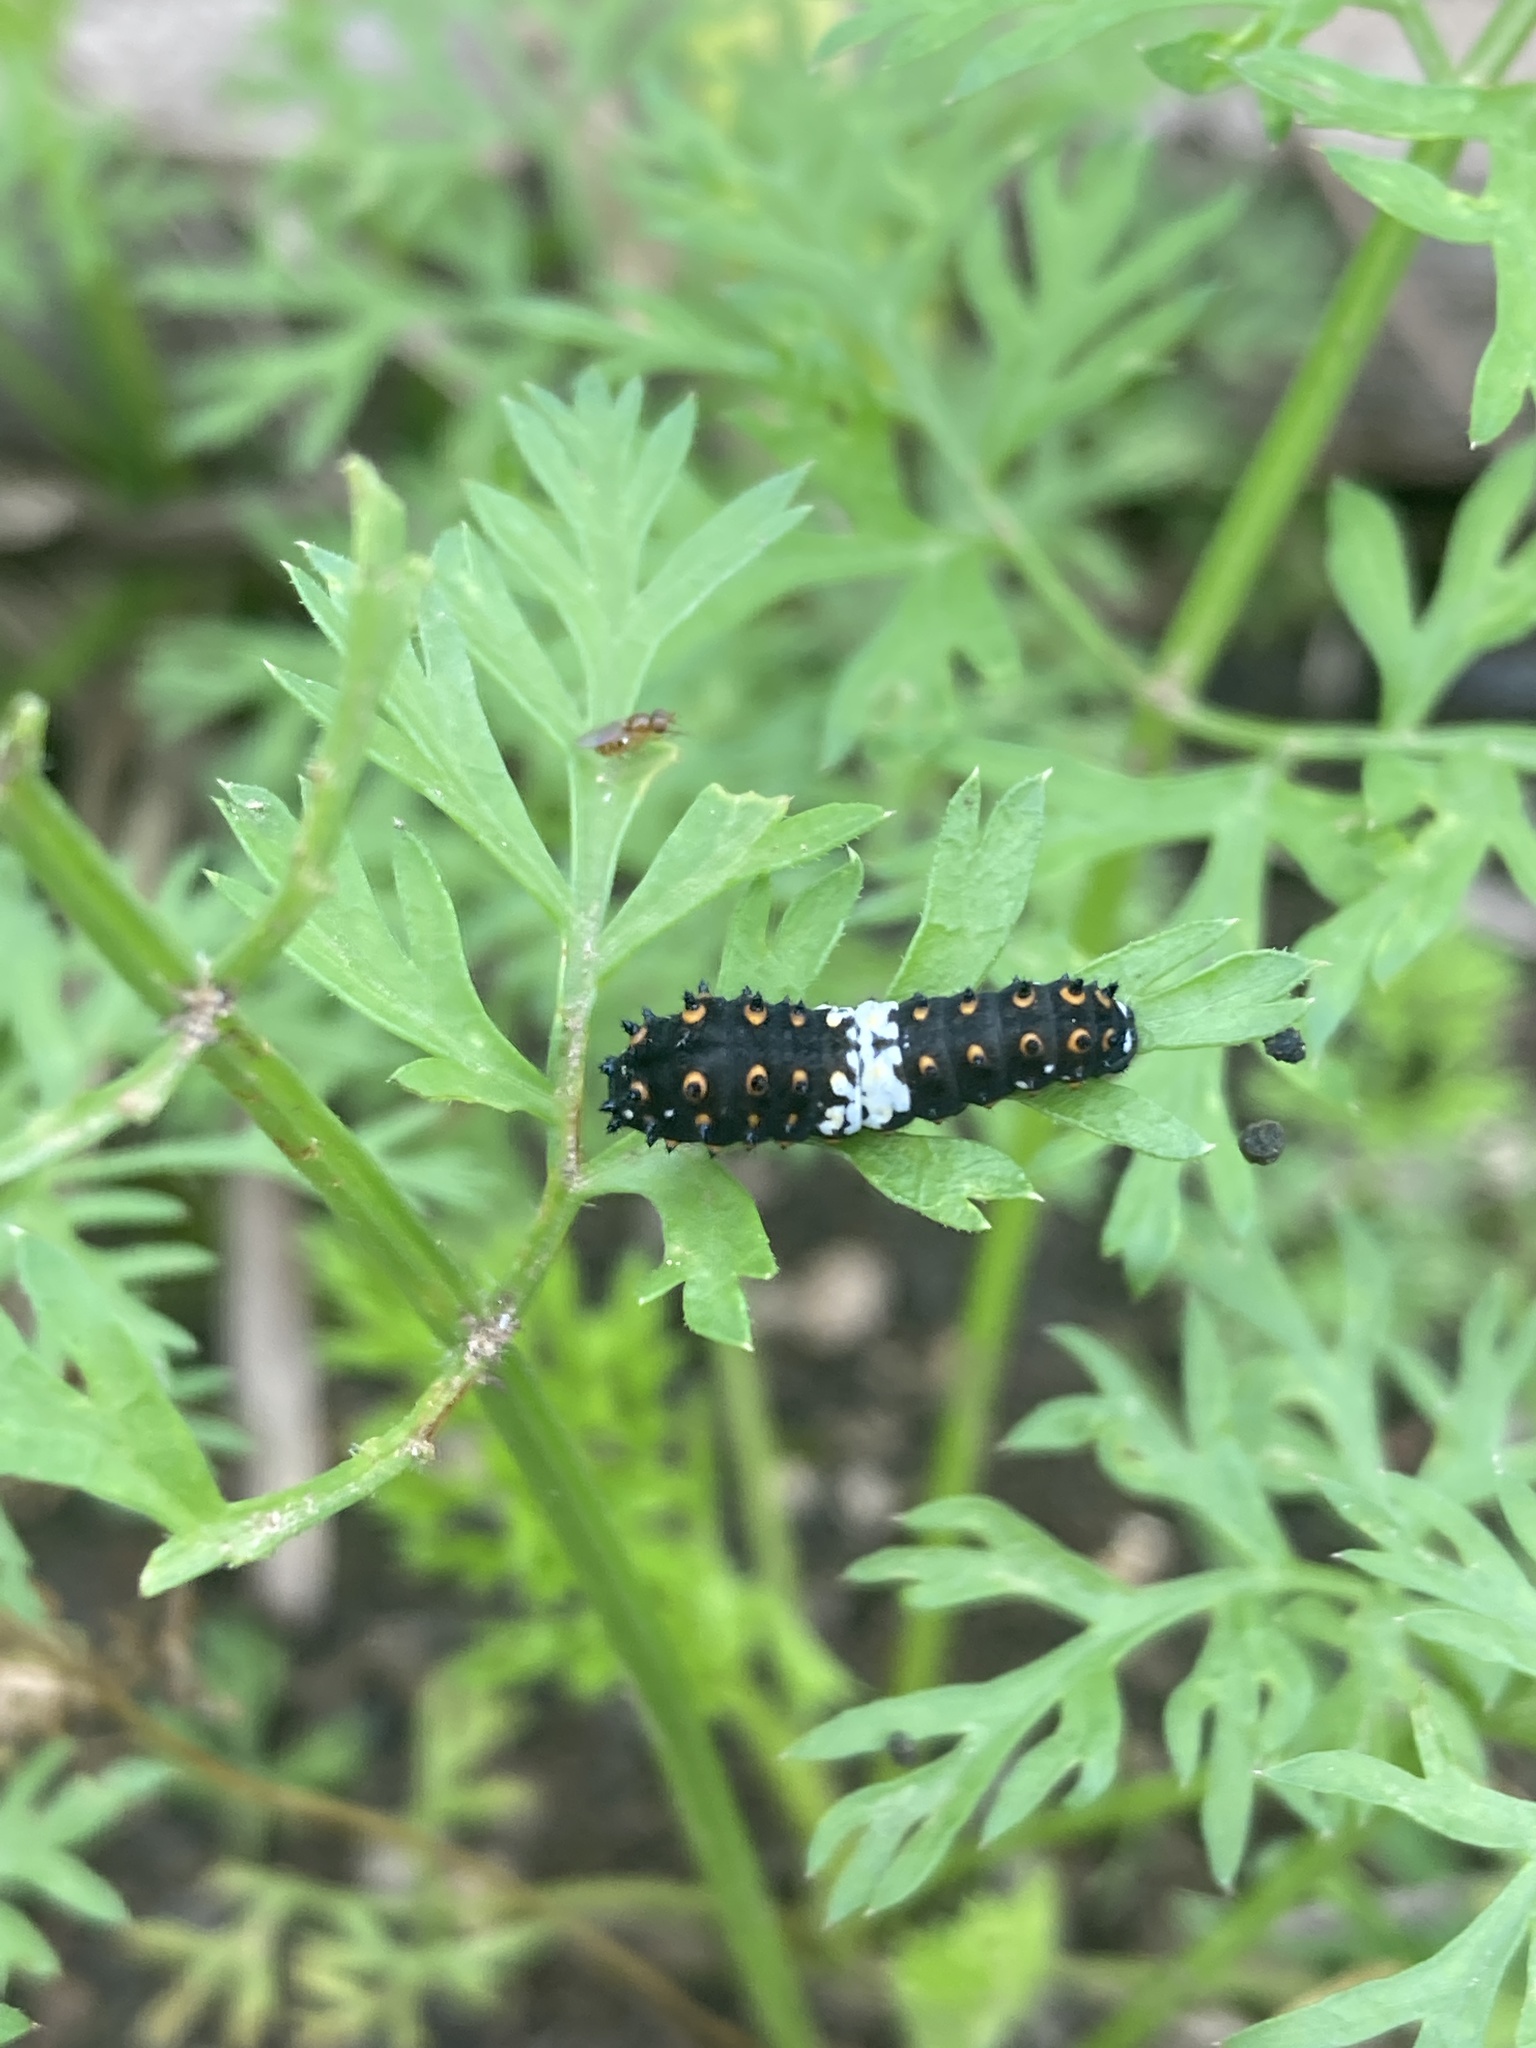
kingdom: Animalia
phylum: Arthropoda
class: Insecta
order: Lepidoptera
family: Papilionidae
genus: Papilio
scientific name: Papilio polyxenes
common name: Black swallowtail
